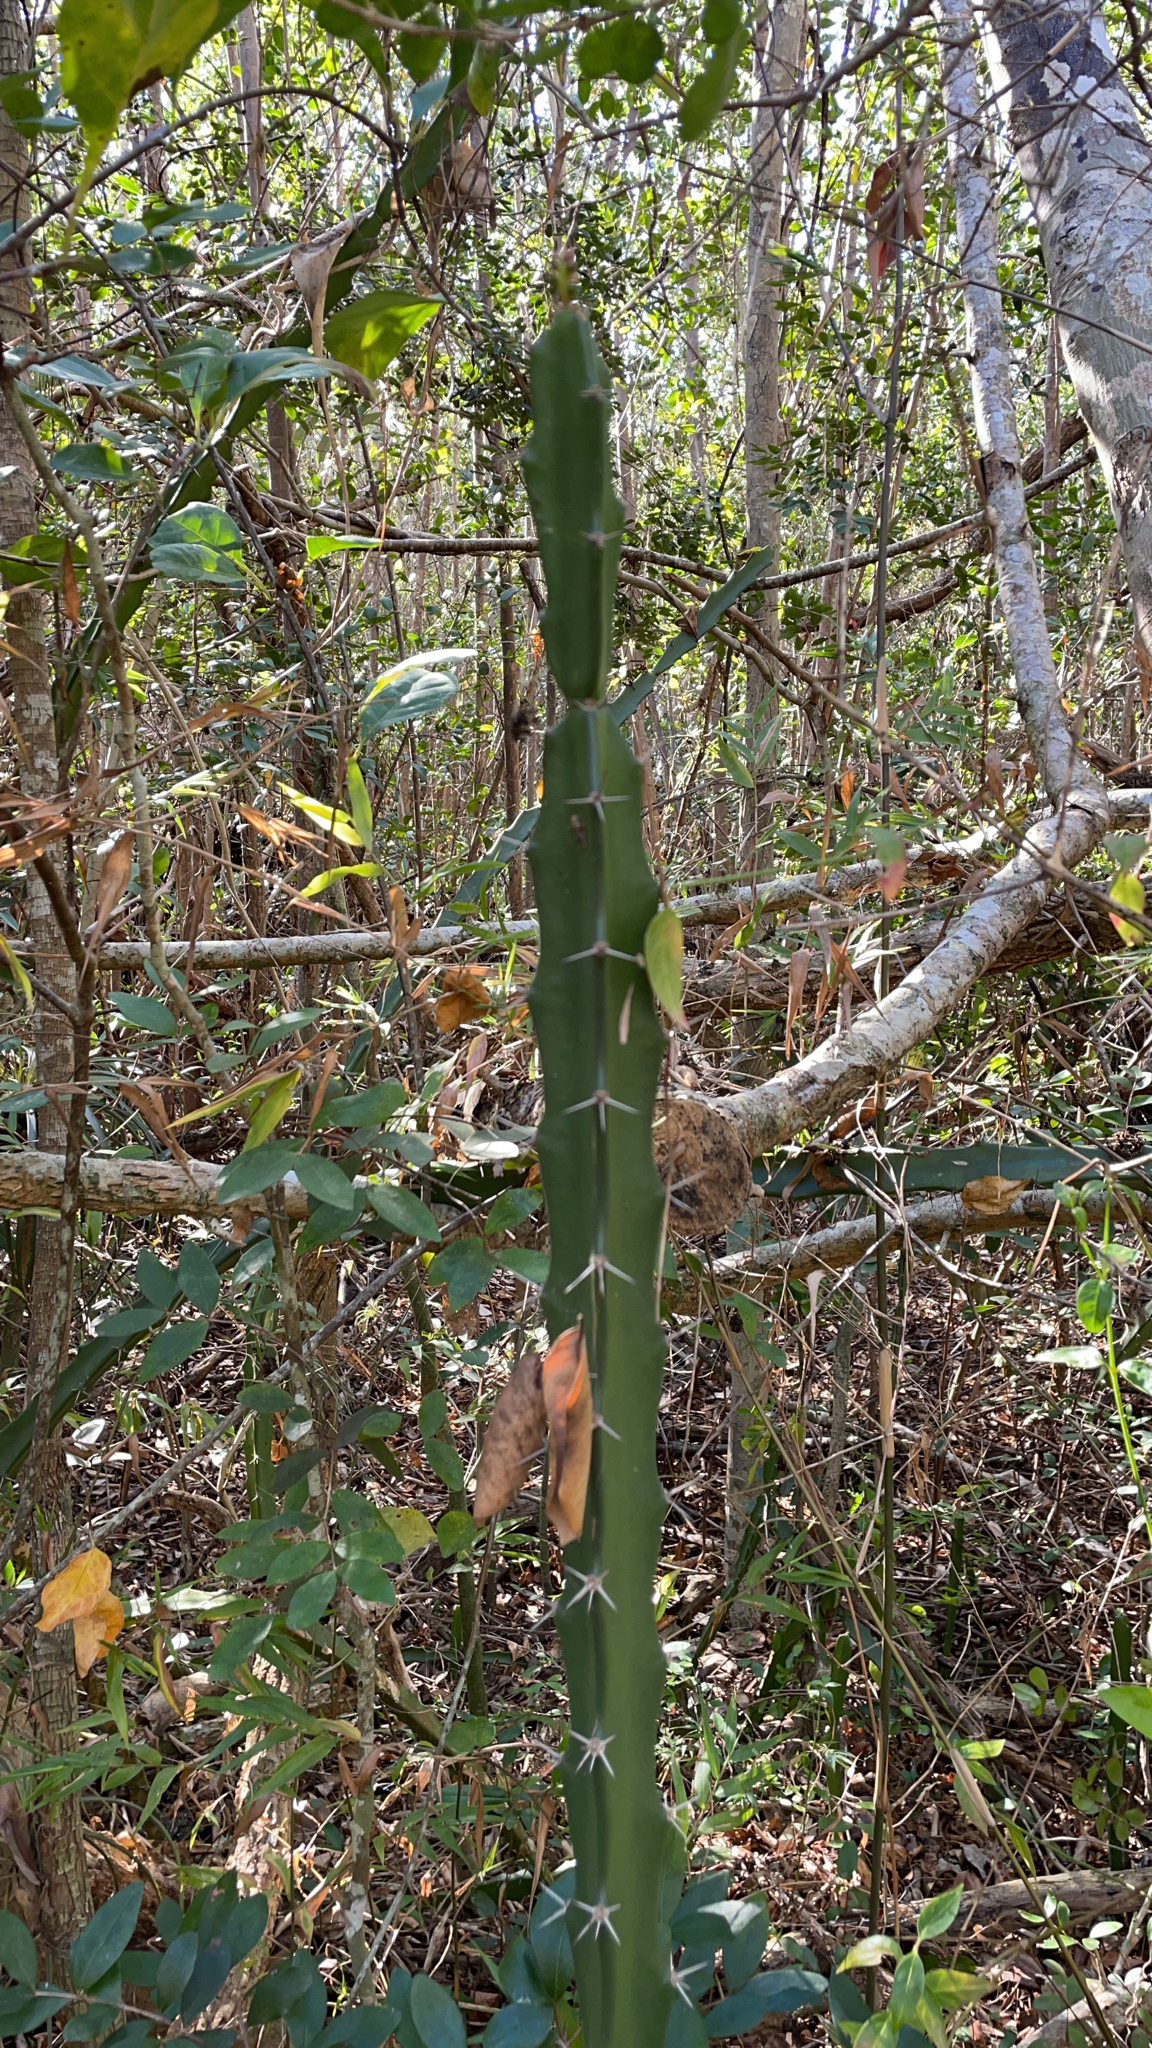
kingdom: Plantae
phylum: Tracheophyta
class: Magnoliopsida
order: Caryophyllales
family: Cactaceae
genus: Acanthocereus
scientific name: Acanthocereus tetragonus
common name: Triangle cactus
